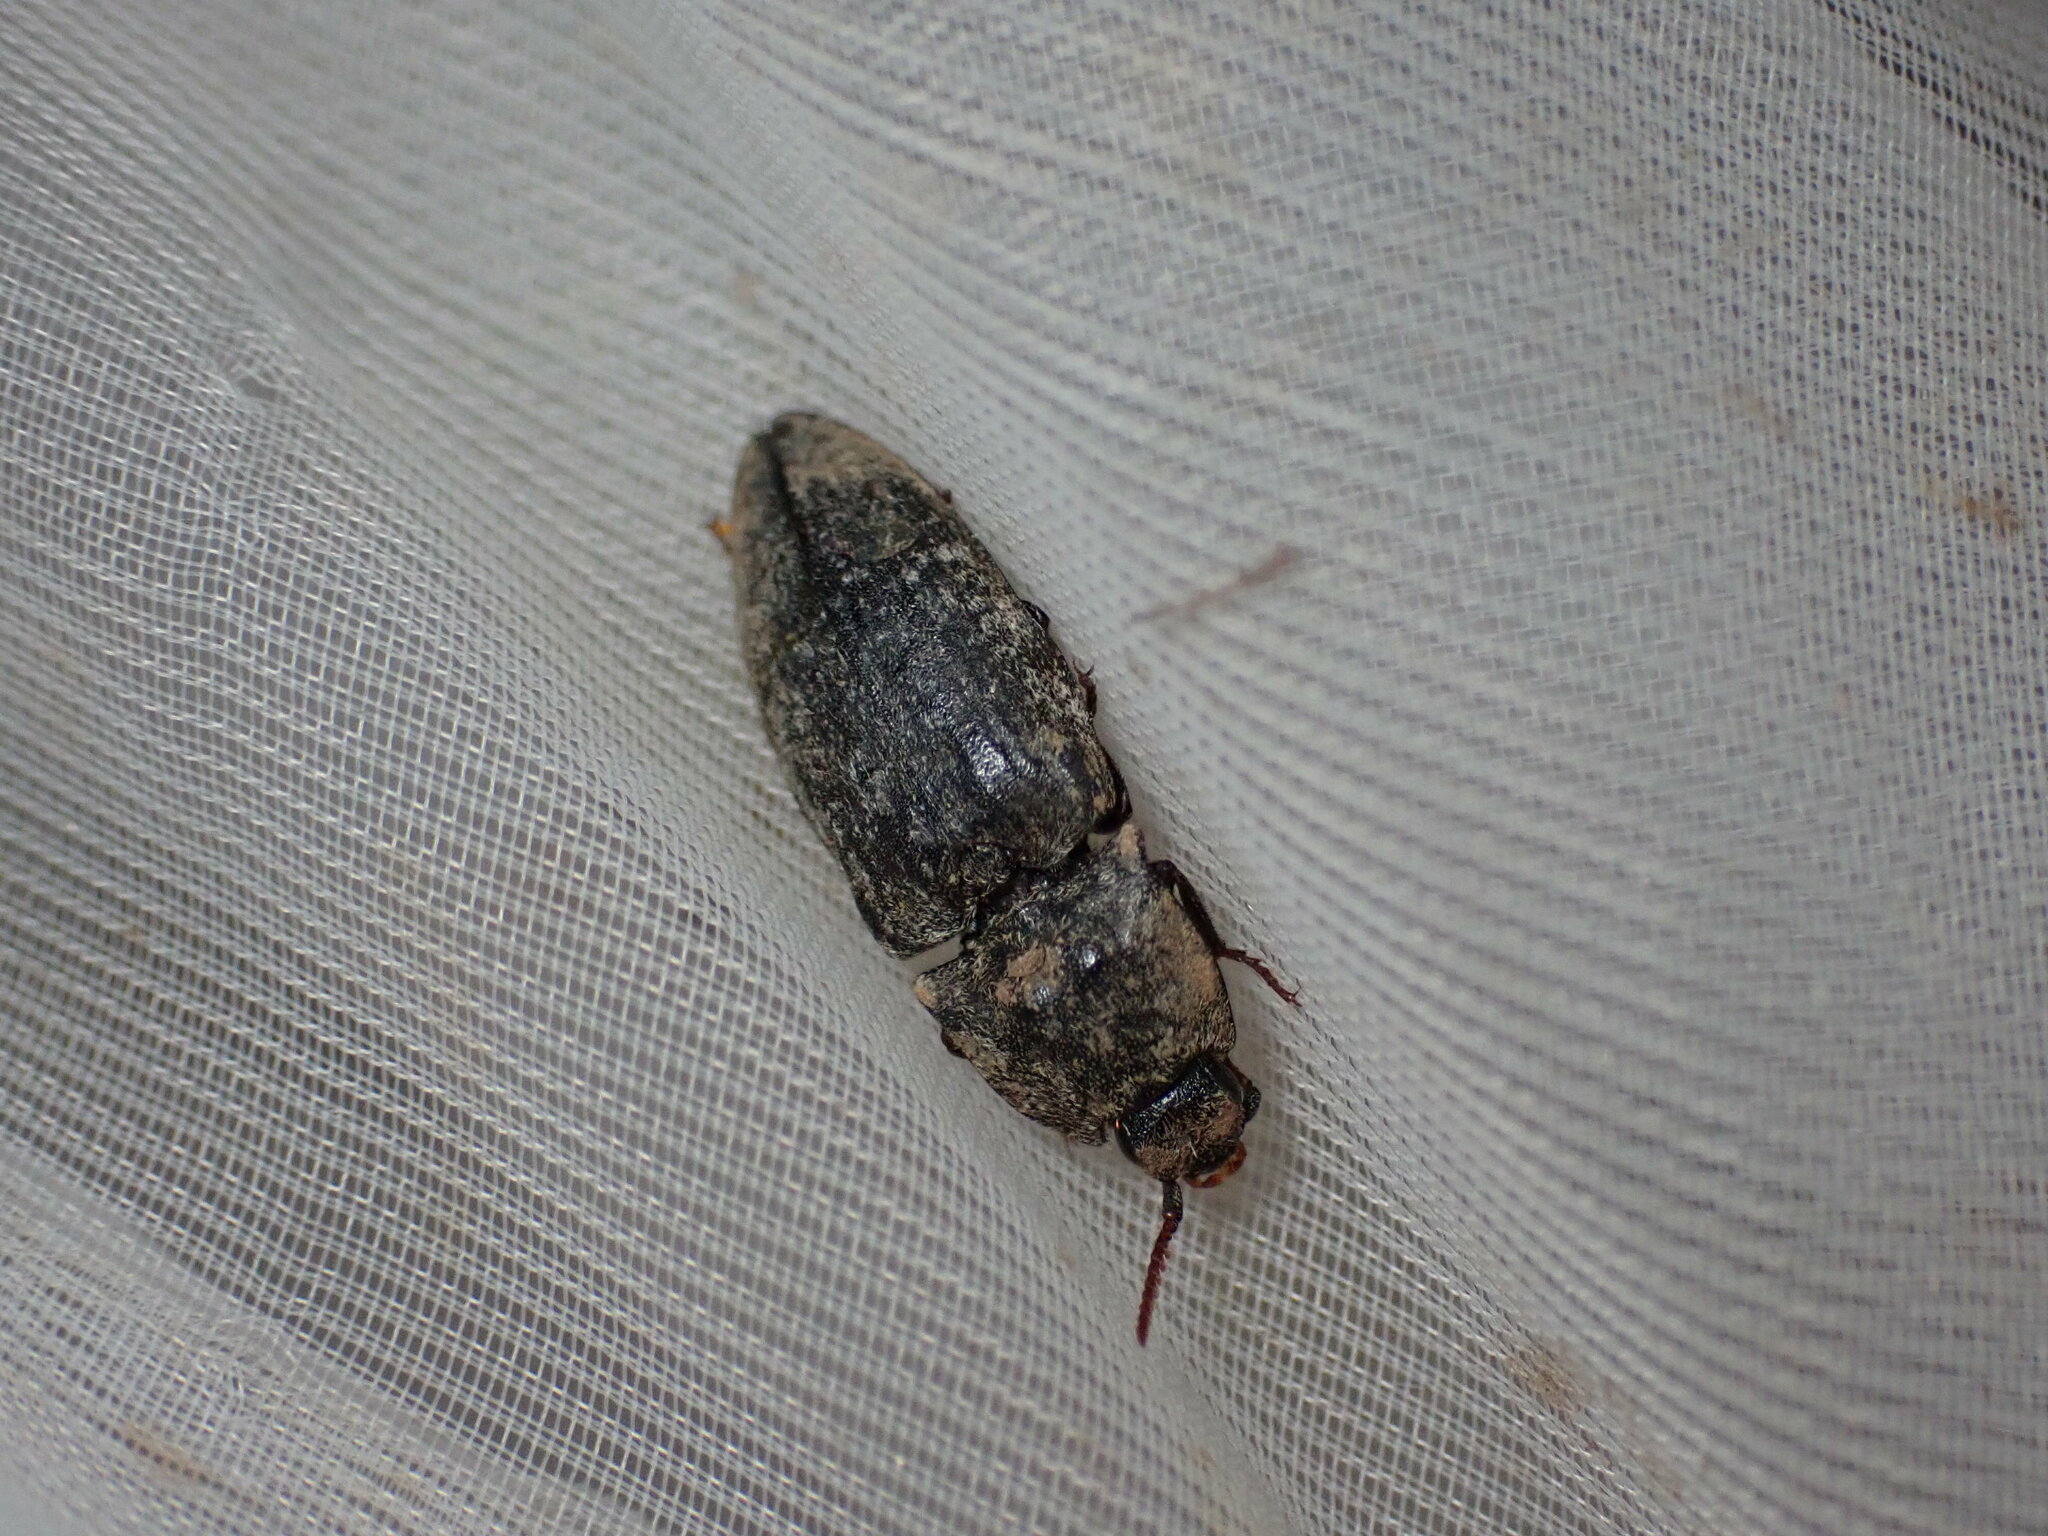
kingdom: Animalia
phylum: Arthropoda
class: Insecta
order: Coleoptera
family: Elateridae
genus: Agrypnus
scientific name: Agrypnus murinus
